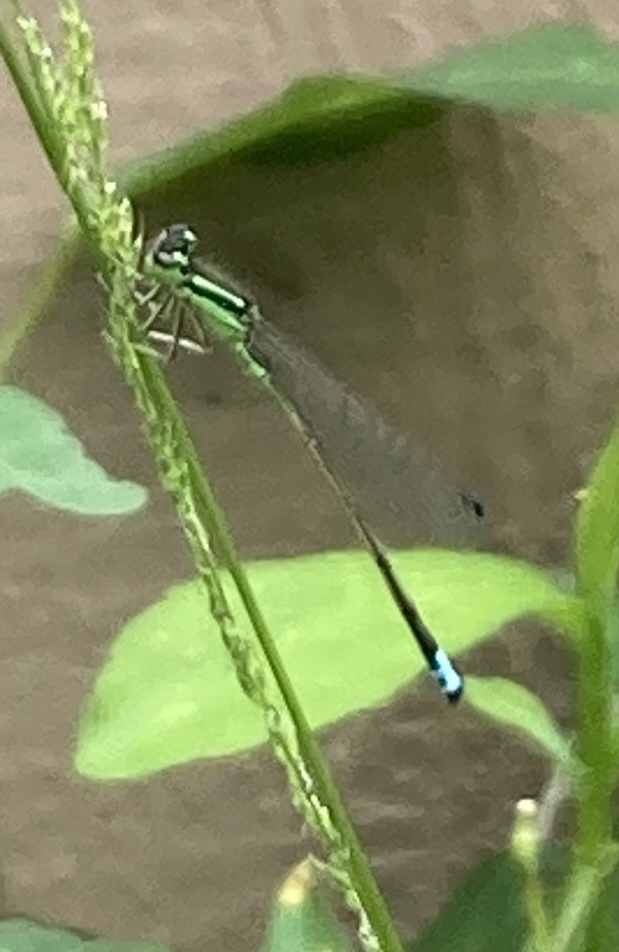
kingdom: Animalia
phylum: Arthropoda
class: Insecta
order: Odonata
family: Coenagrionidae
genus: Ischnura
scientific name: Ischnura verticalis
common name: Eastern forktail
